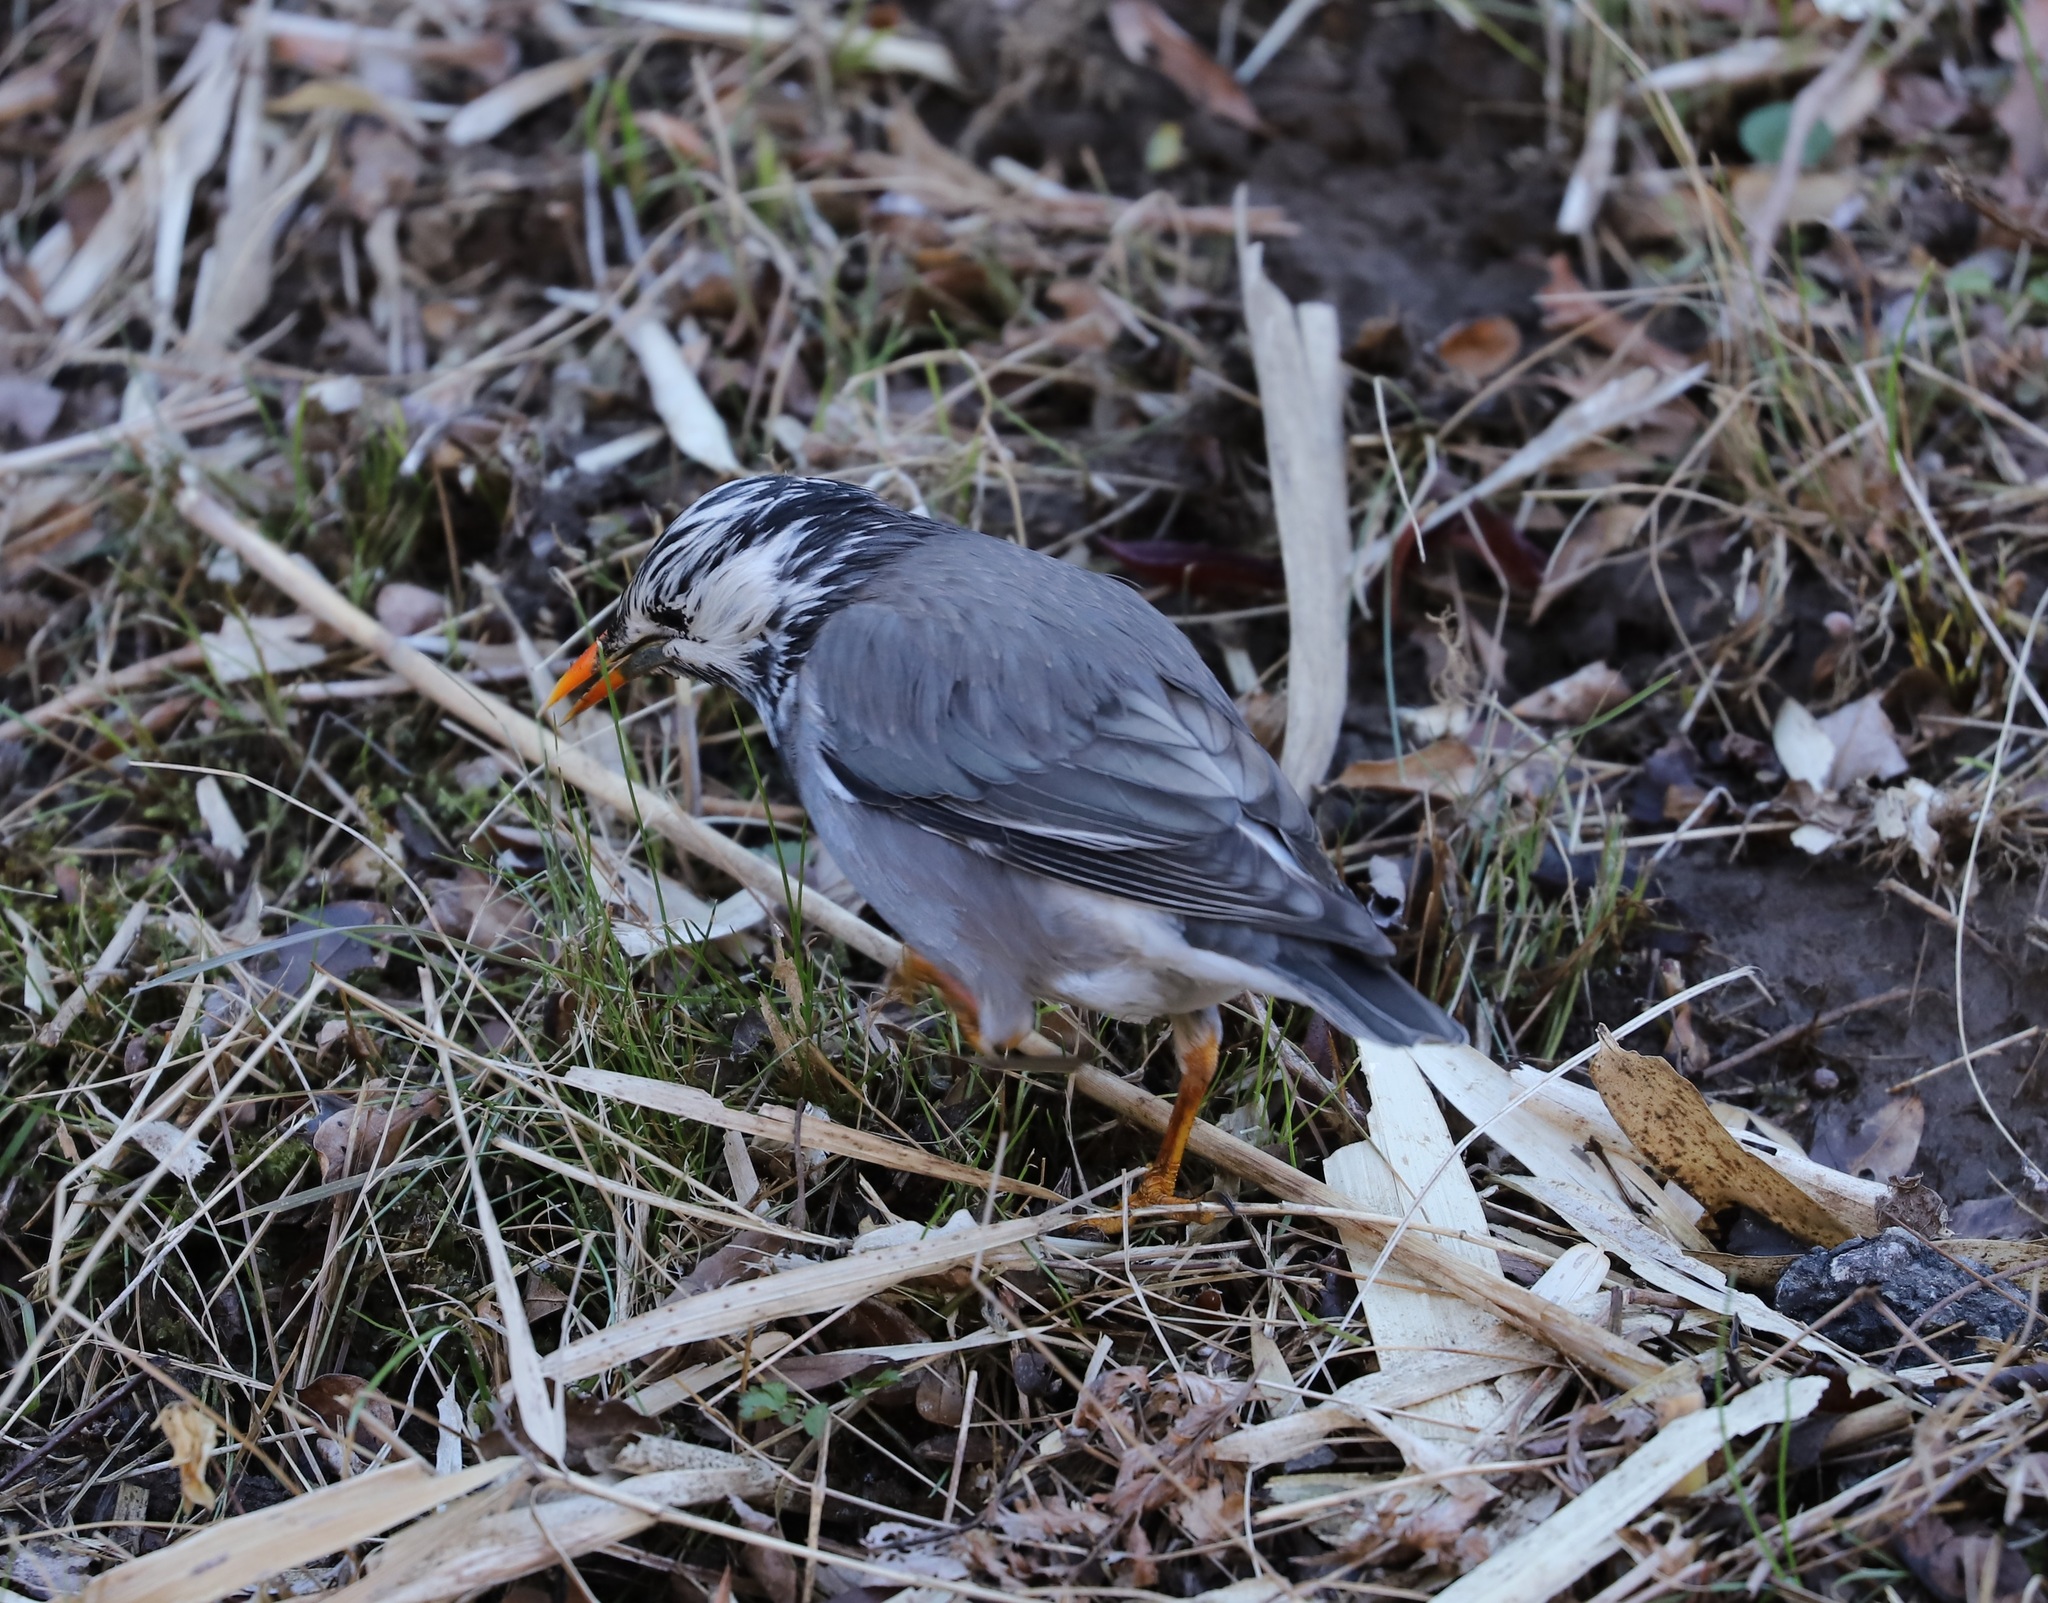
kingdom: Animalia
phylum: Chordata
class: Aves
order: Passeriformes
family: Sturnidae
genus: Spodiopsar
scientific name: Spodiopsar cineraceus
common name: White-cheeked starling
